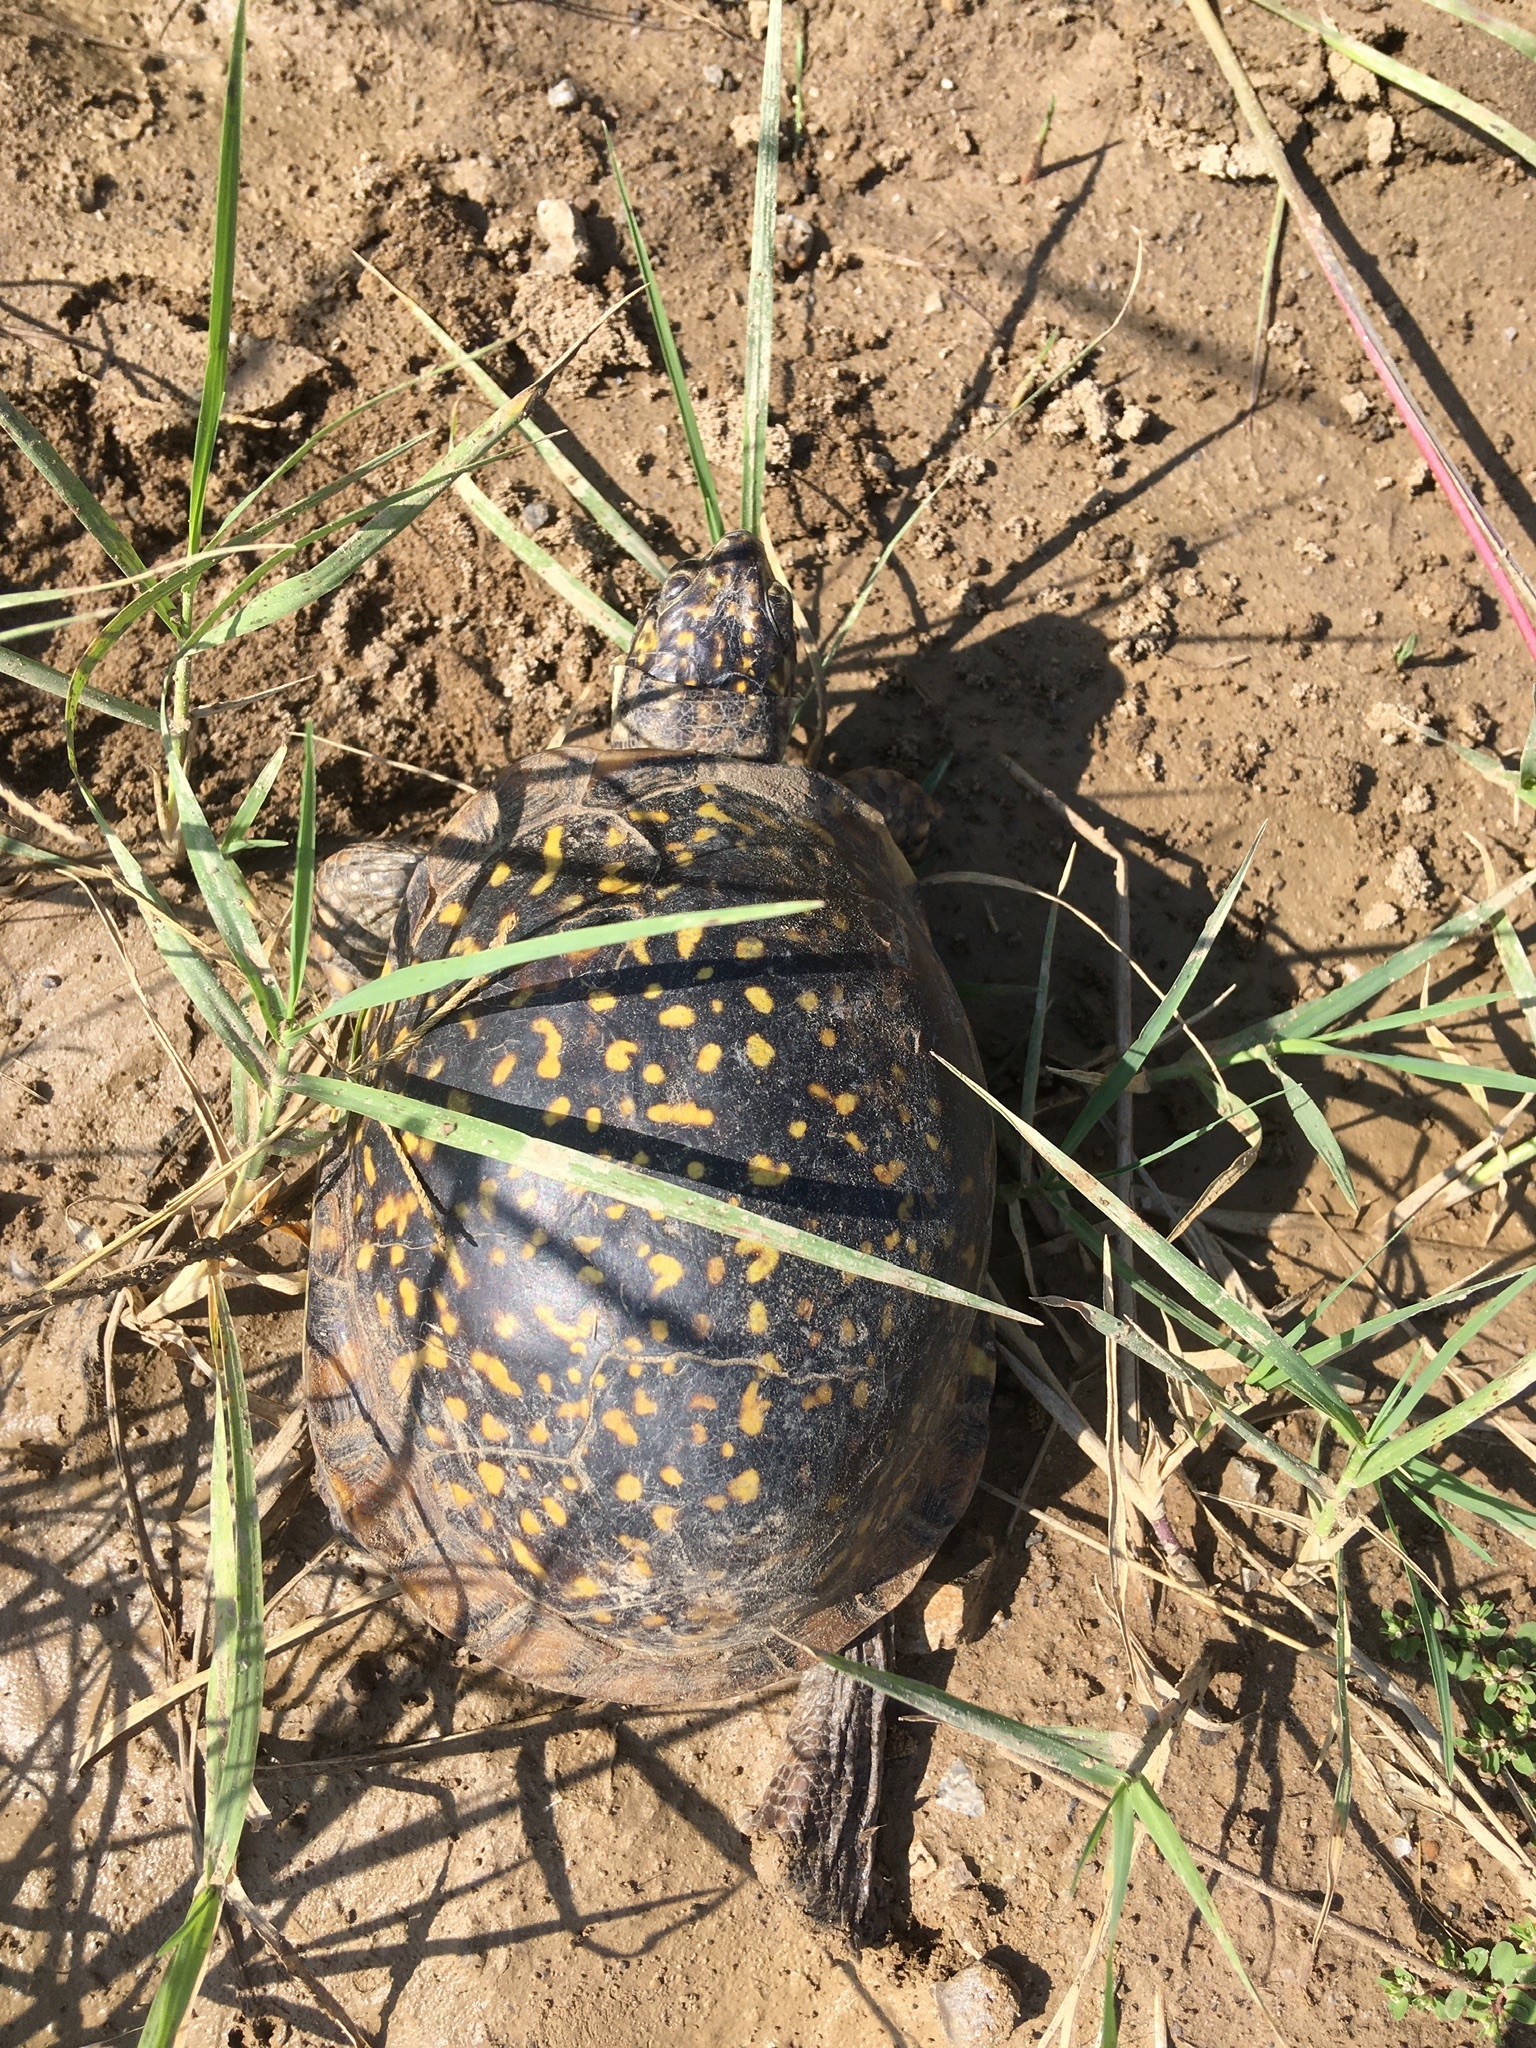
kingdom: Animalia
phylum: Chordata
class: Testudines
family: Emydidae
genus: Terrapene
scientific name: Terrapene ornata
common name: Western box turtle
